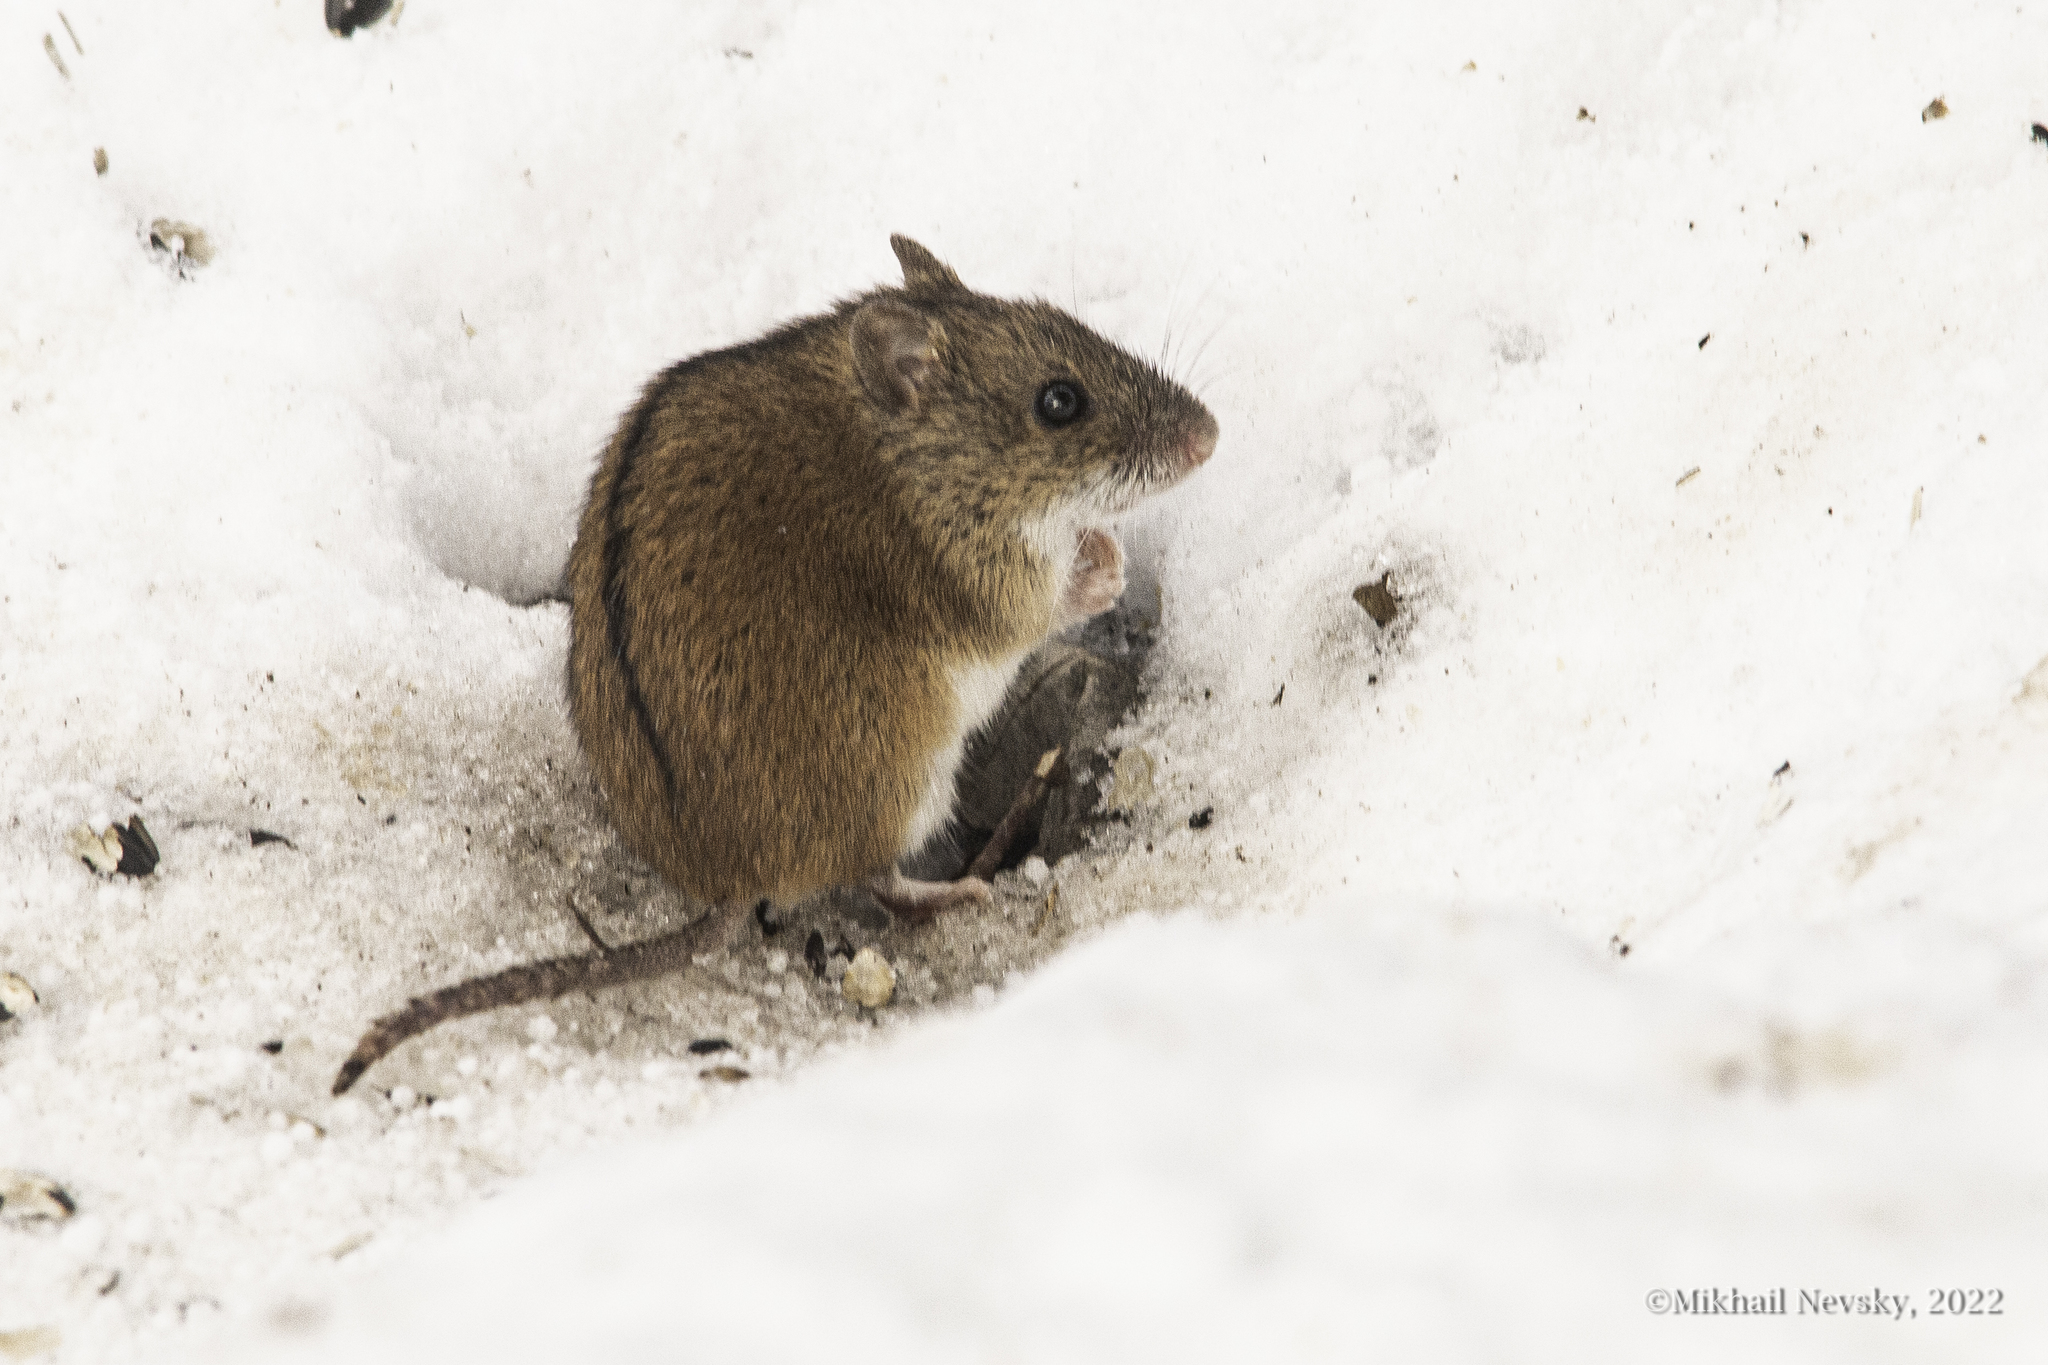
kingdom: Animalia
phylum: Chordata
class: Mammalia
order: Rodentia
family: Muridae
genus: Apodemus
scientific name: Apodemus agrarius
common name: Striped field mouse
